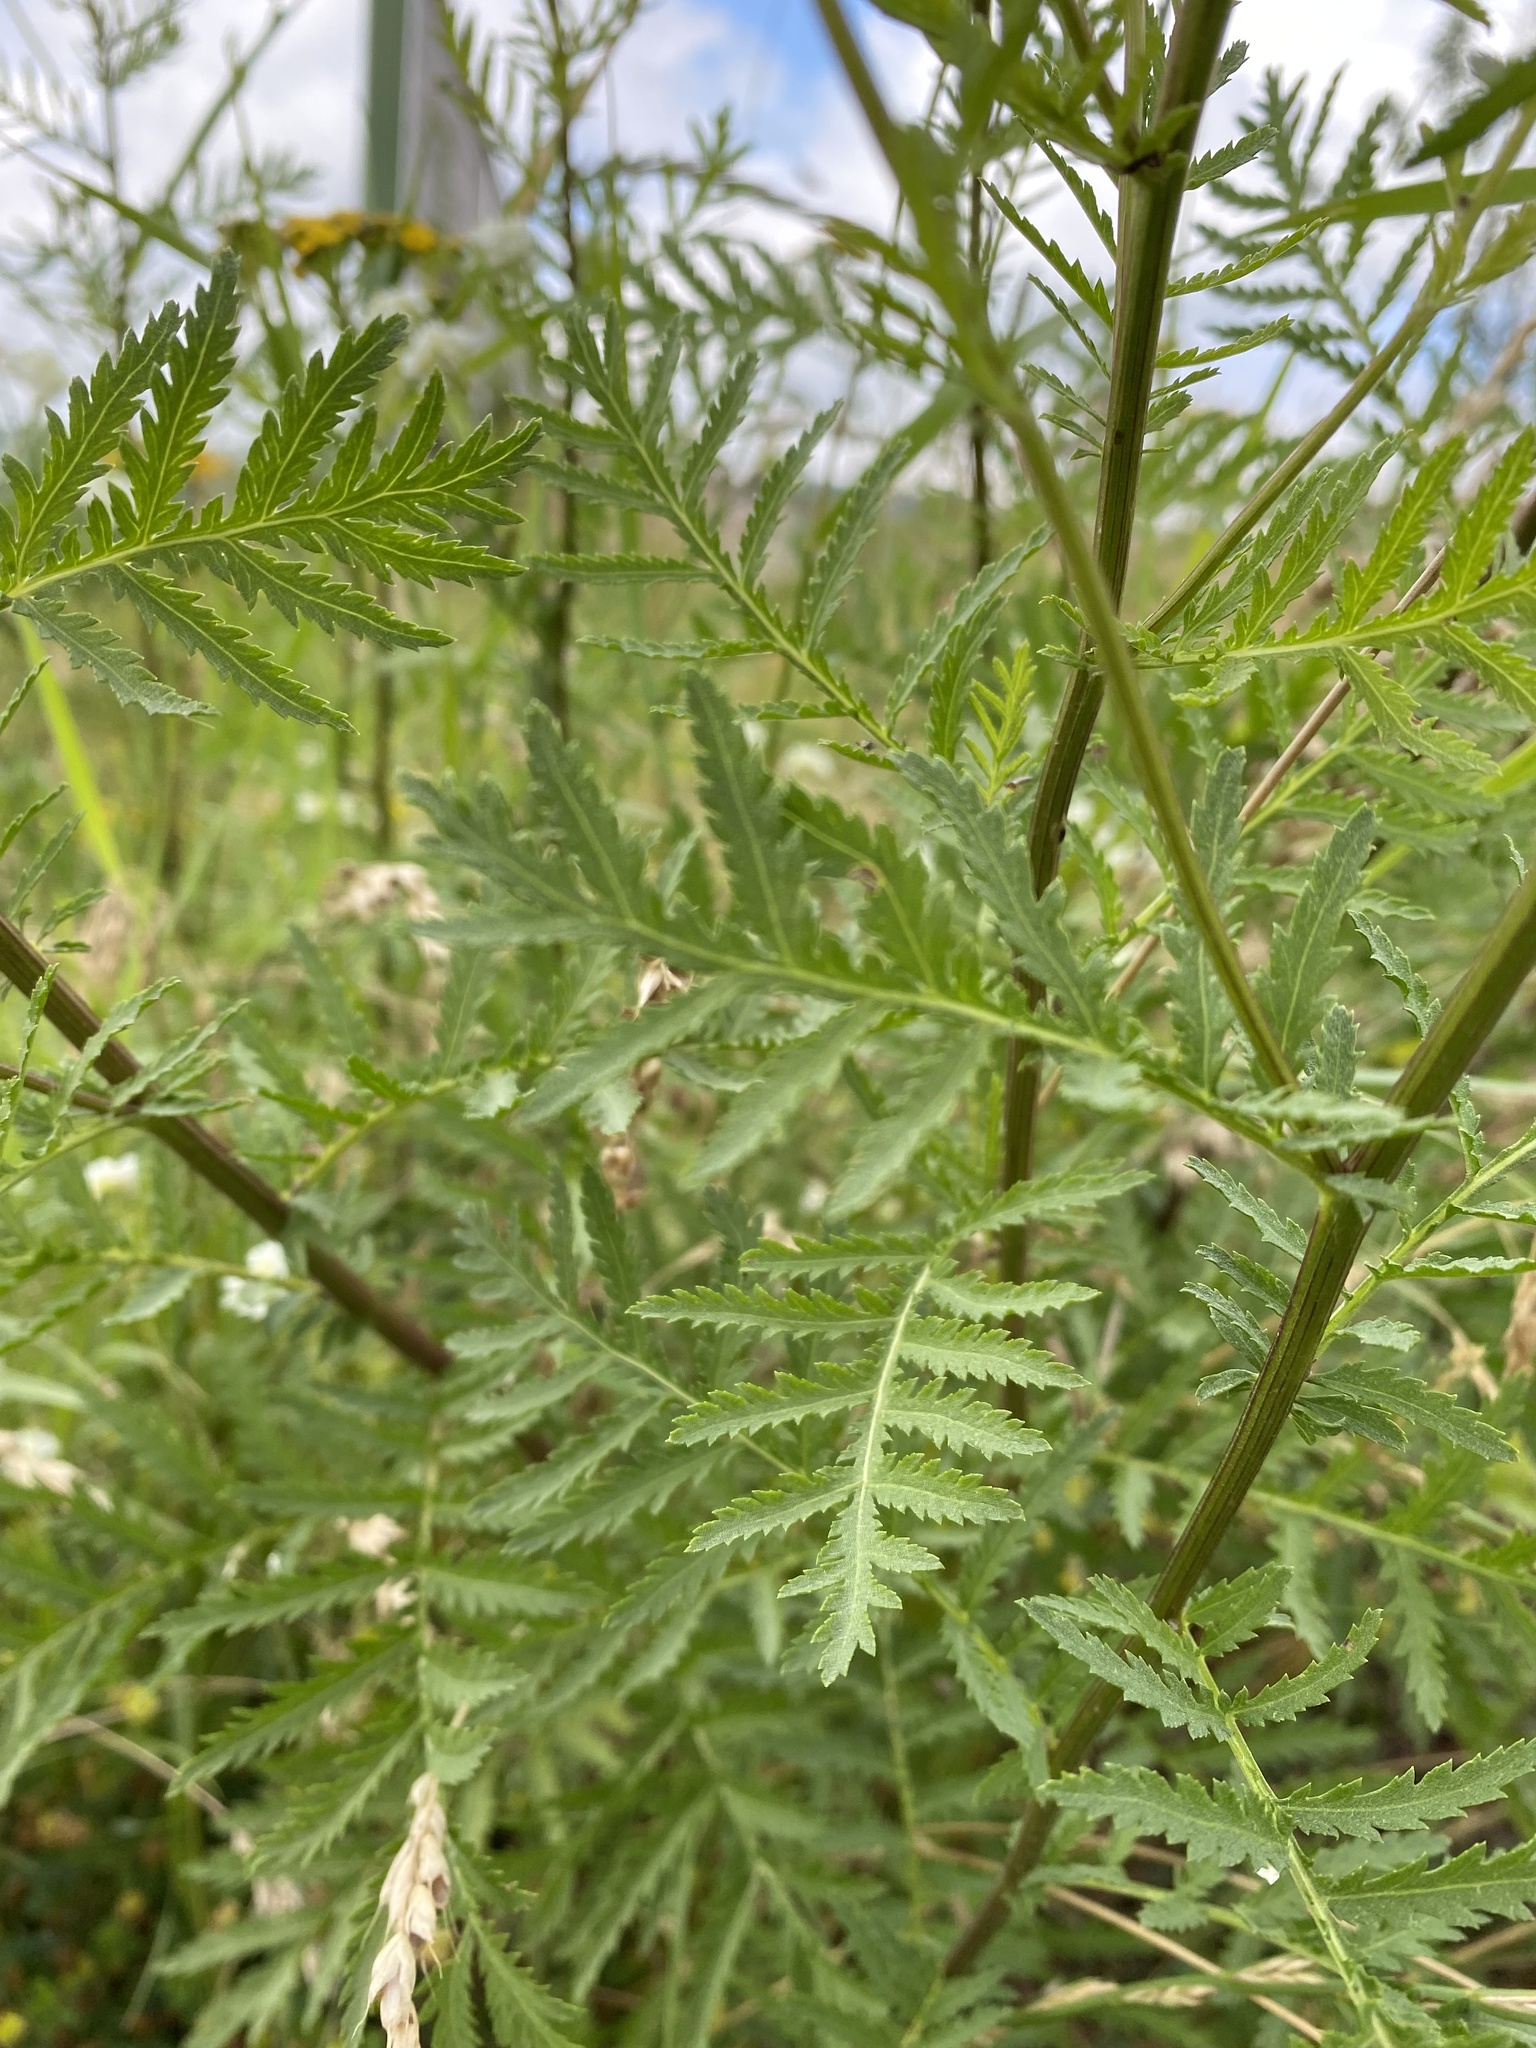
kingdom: Plantae
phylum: Tracheophyta
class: Magnoliopsida
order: Asterales
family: Asteraceae
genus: Tanacetum
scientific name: Tanacetum vulgare
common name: Common tansy
